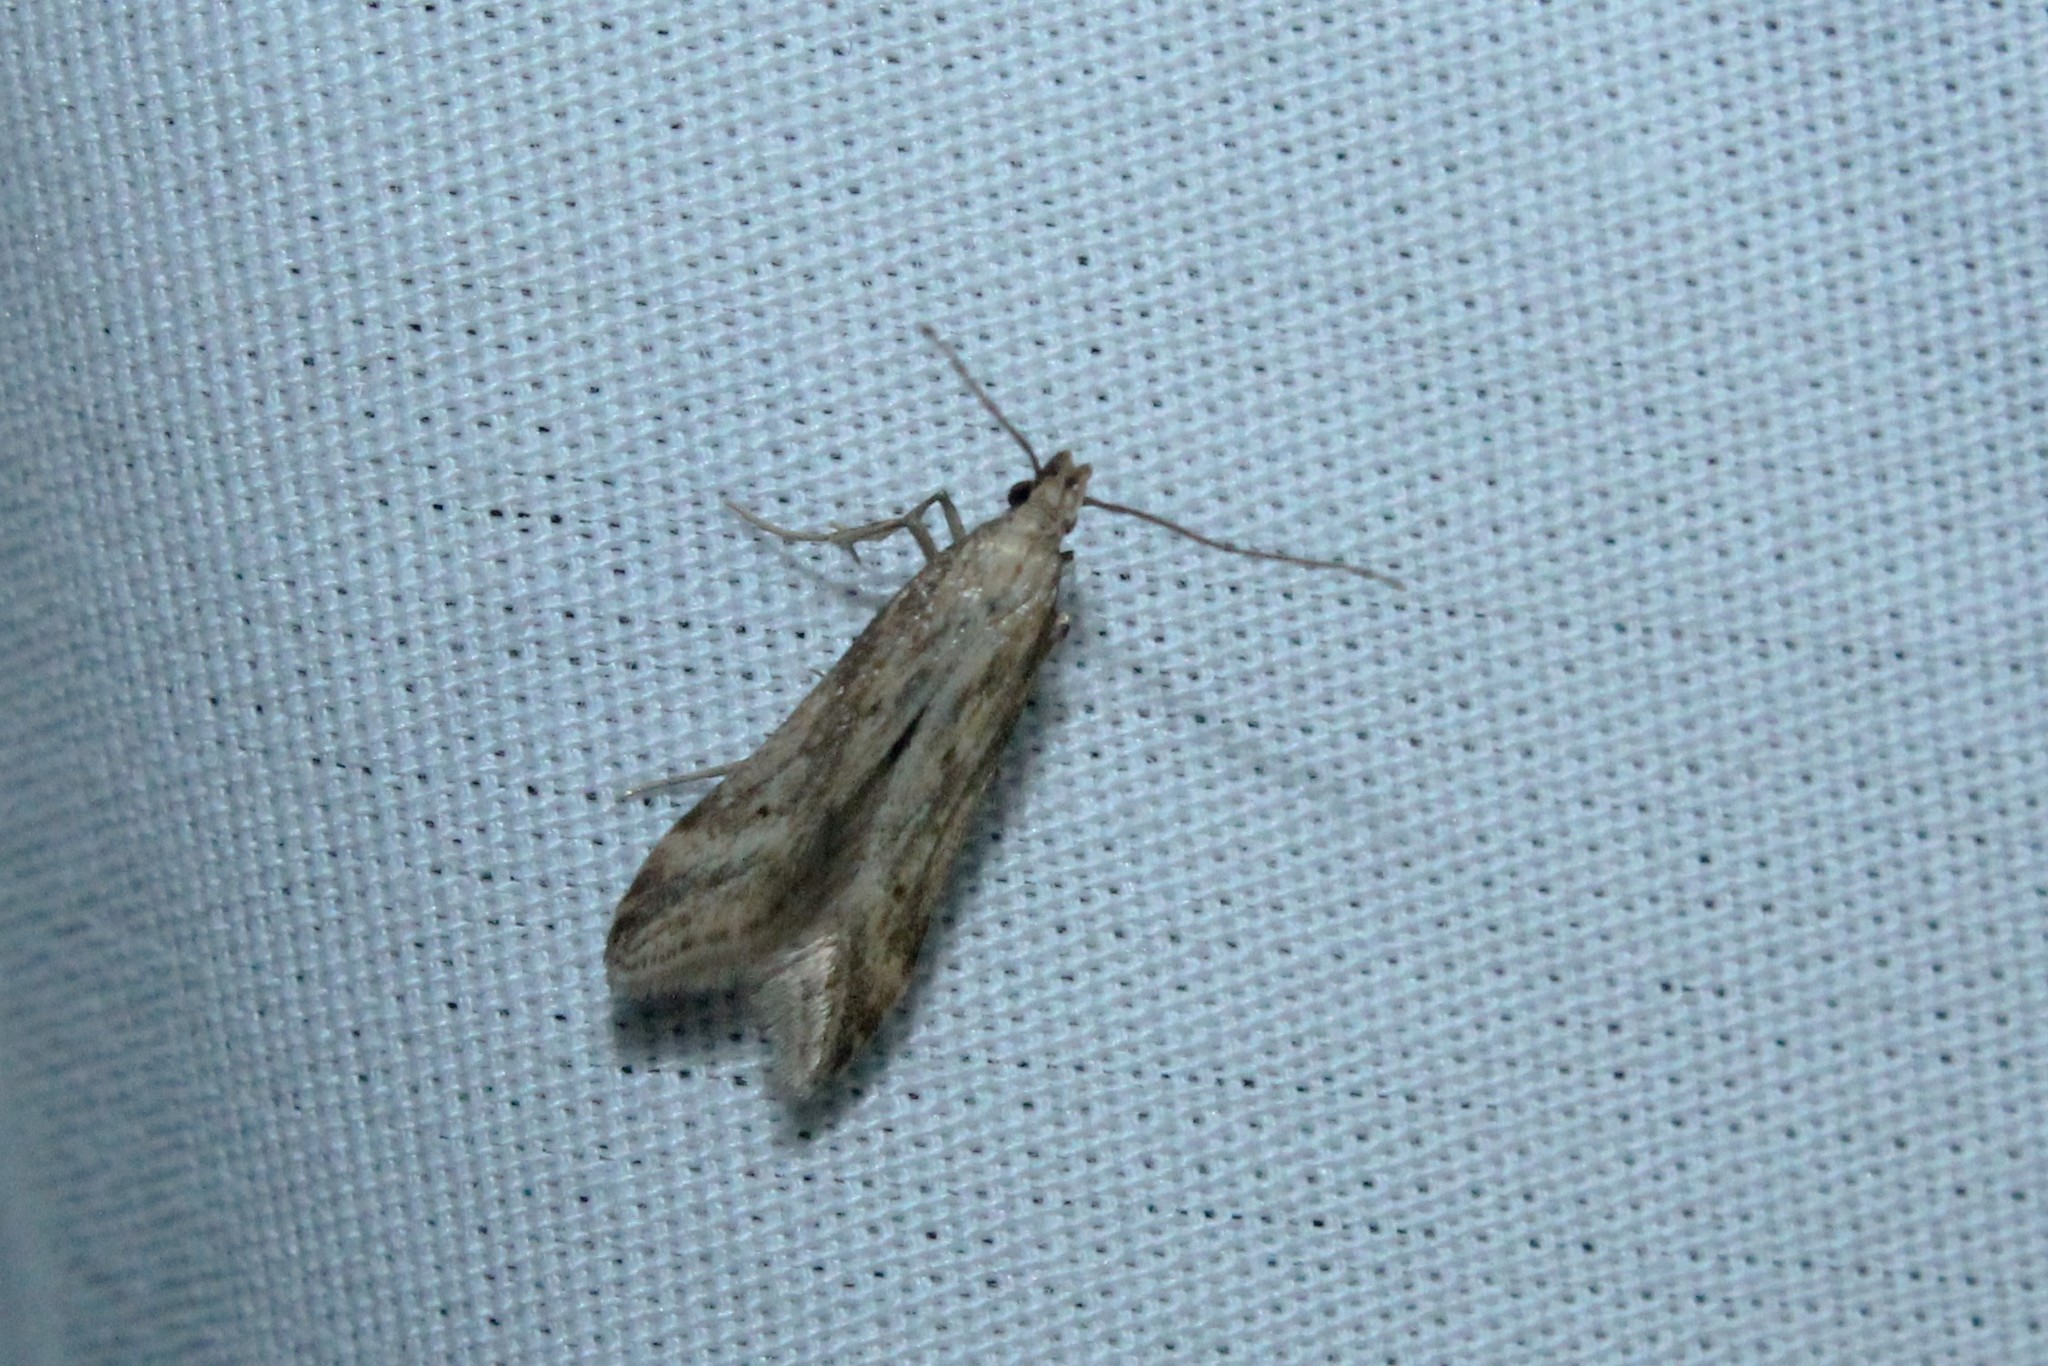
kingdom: Animalia
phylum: Arthropoda
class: Insecta
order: Lepidoptera
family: Gelechiidae
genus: Metzneria
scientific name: Metzneria lappella
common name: Burdock neb
